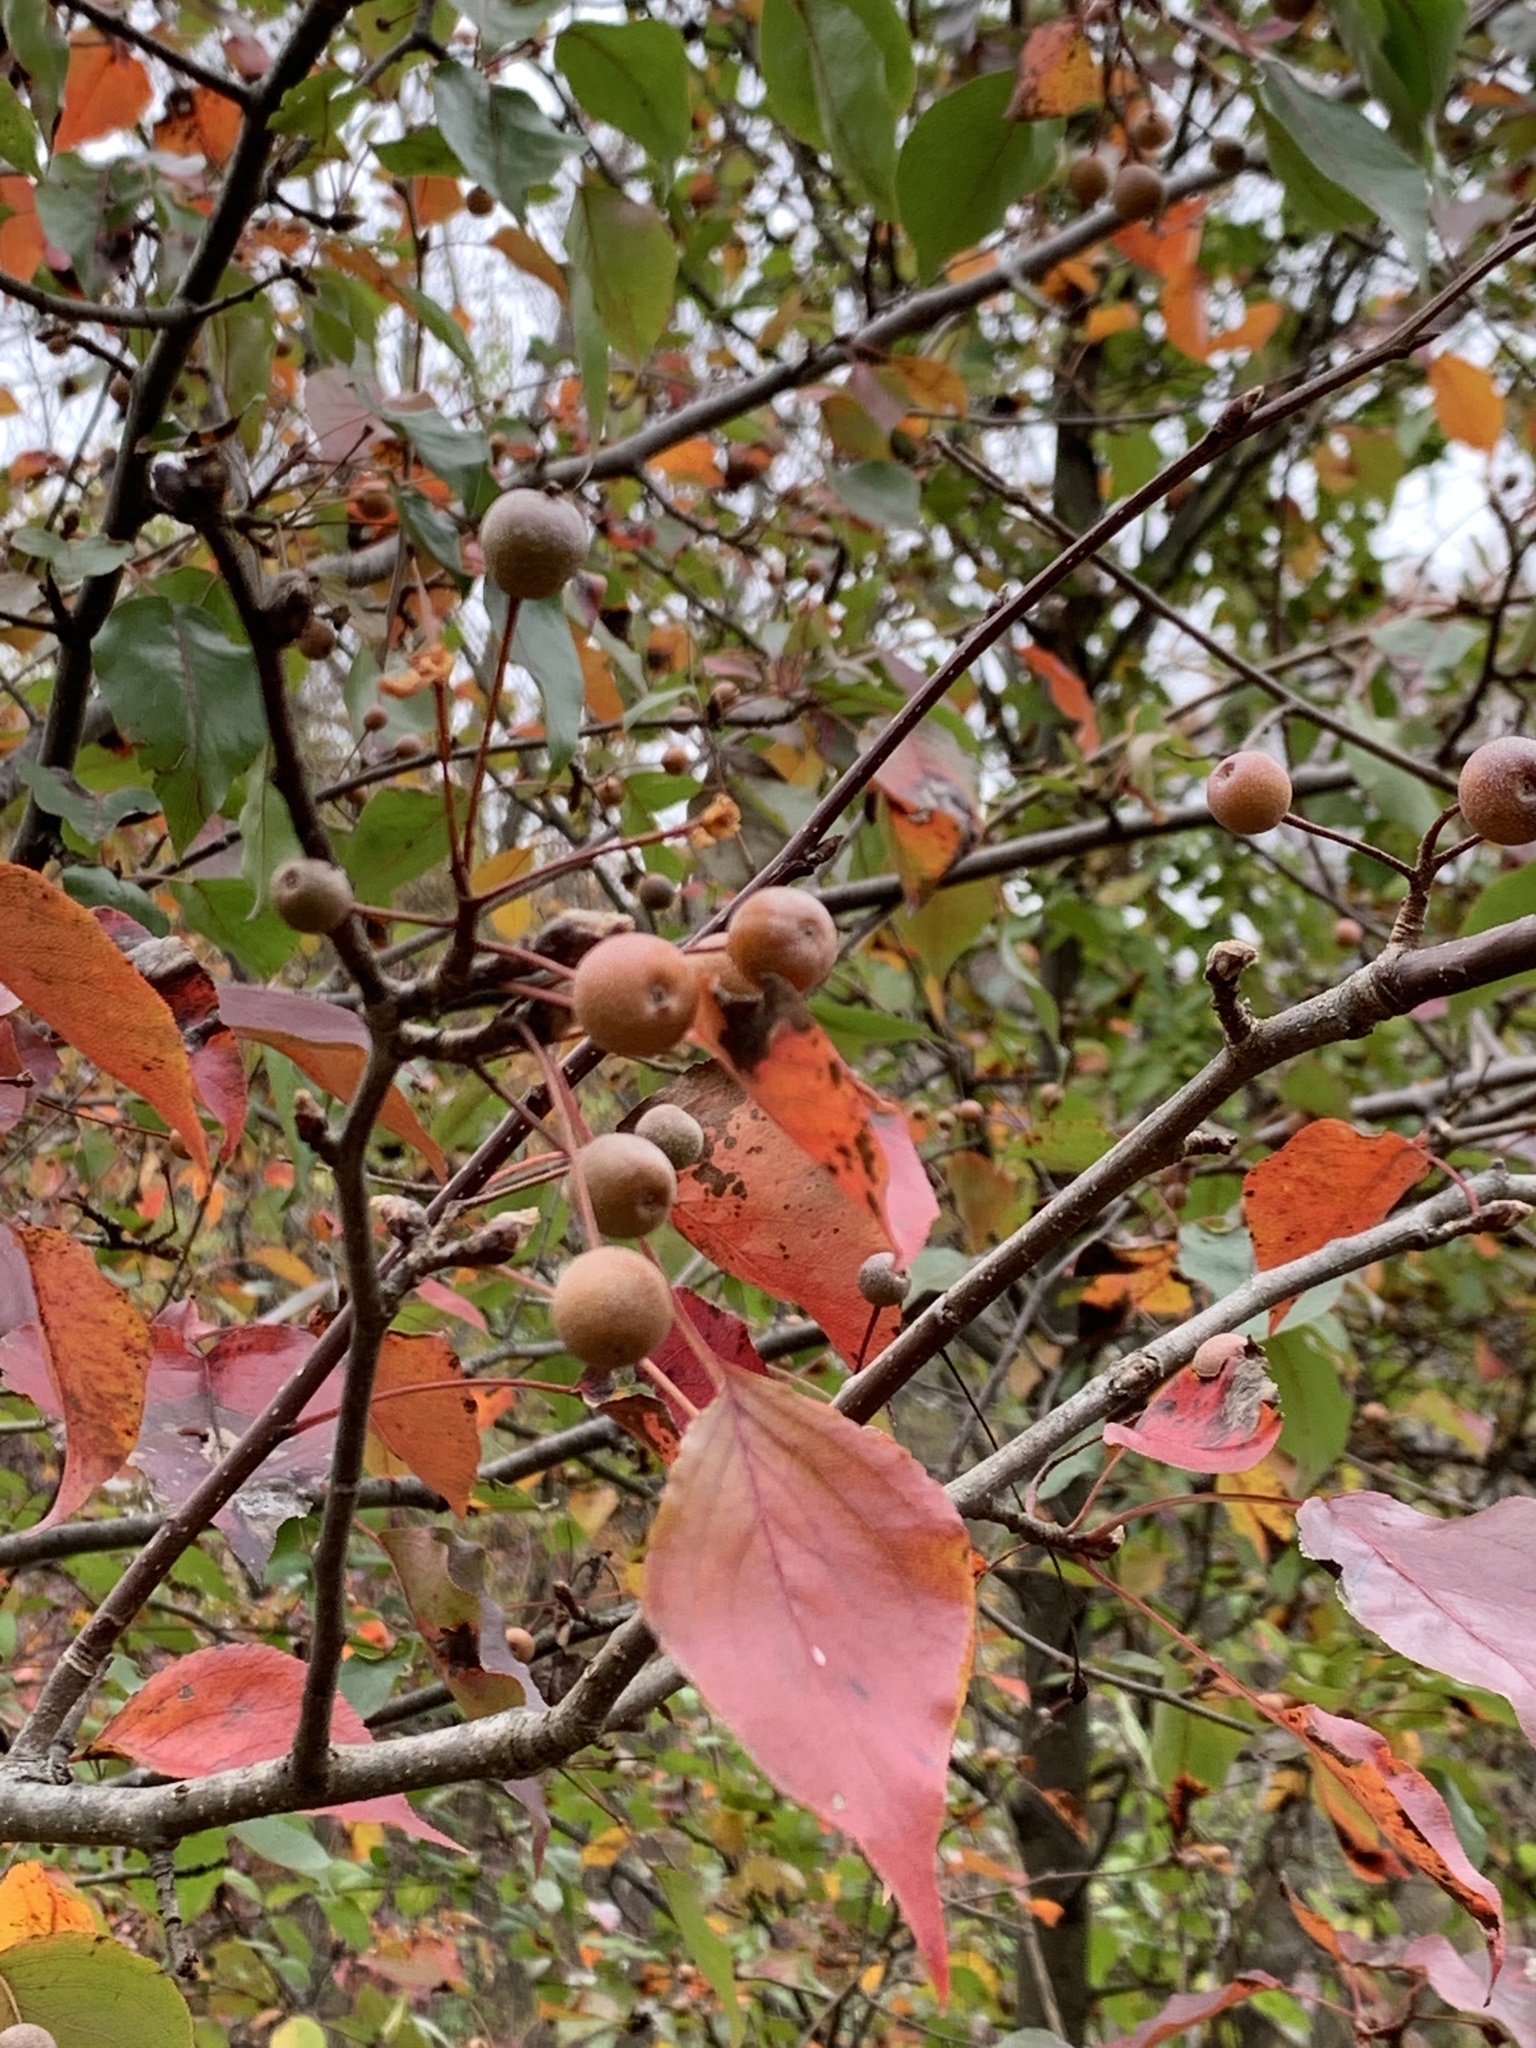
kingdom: Plantae
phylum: Tracheophyta
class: Magnoliopsida
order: Rosales
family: Rosaceae
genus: Pyrus
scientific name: Pyrus calleryana
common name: Callery pear
